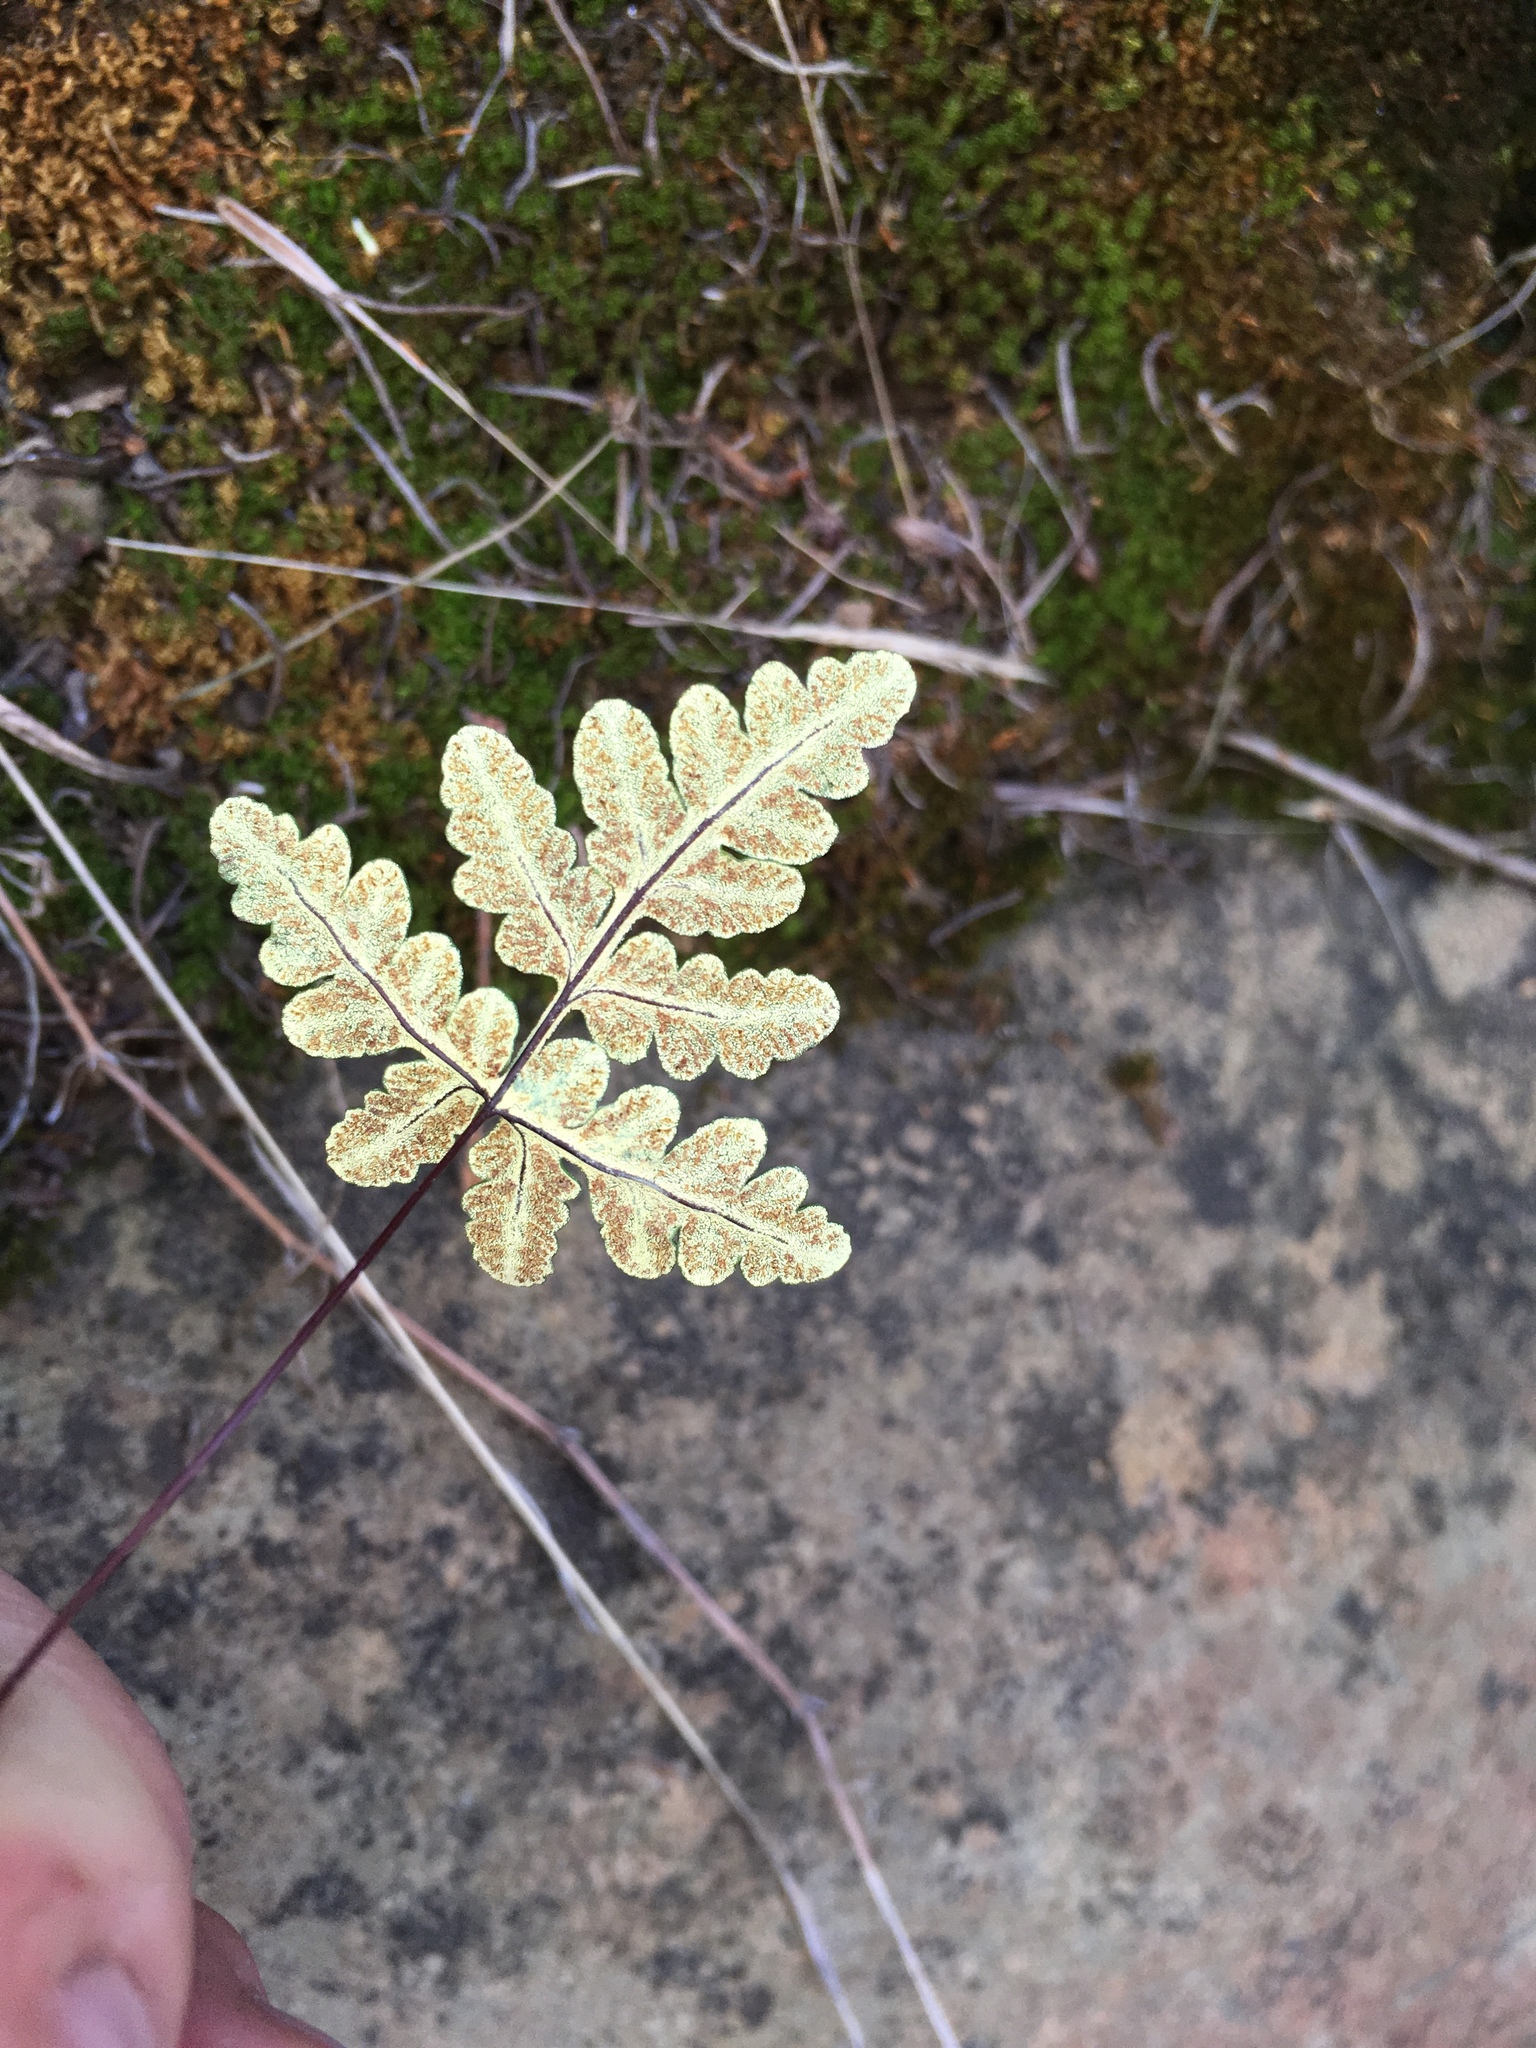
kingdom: Plantae
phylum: Tracheophyta
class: Polypodiopsida
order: Polypodiales
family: Pteridaceae
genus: Pentagramma
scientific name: Pentagramma triangularis
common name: Gold fern
